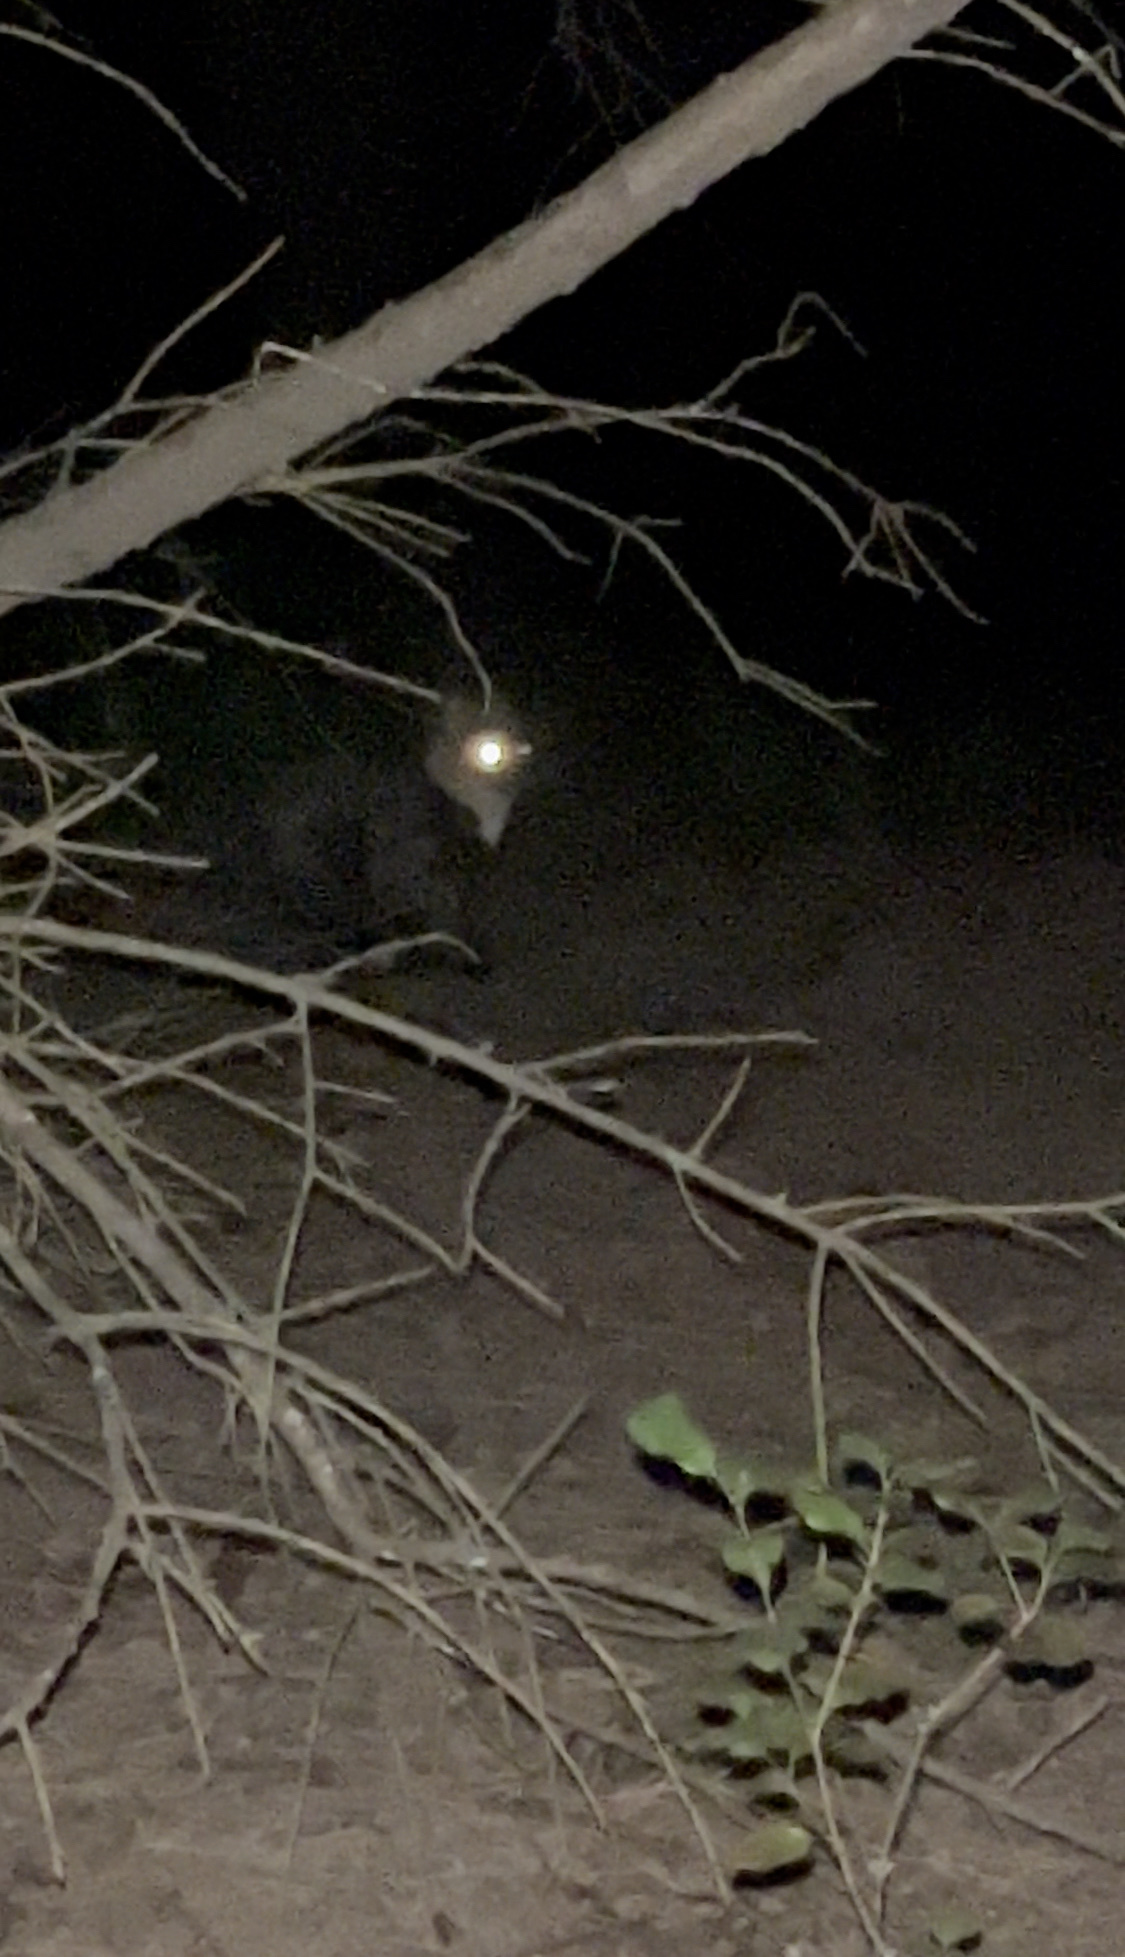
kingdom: Animalia
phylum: Chordata
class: Mammalia
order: Carnivora
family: Felidae
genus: Felis
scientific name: Felis catus
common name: Domestic cat
